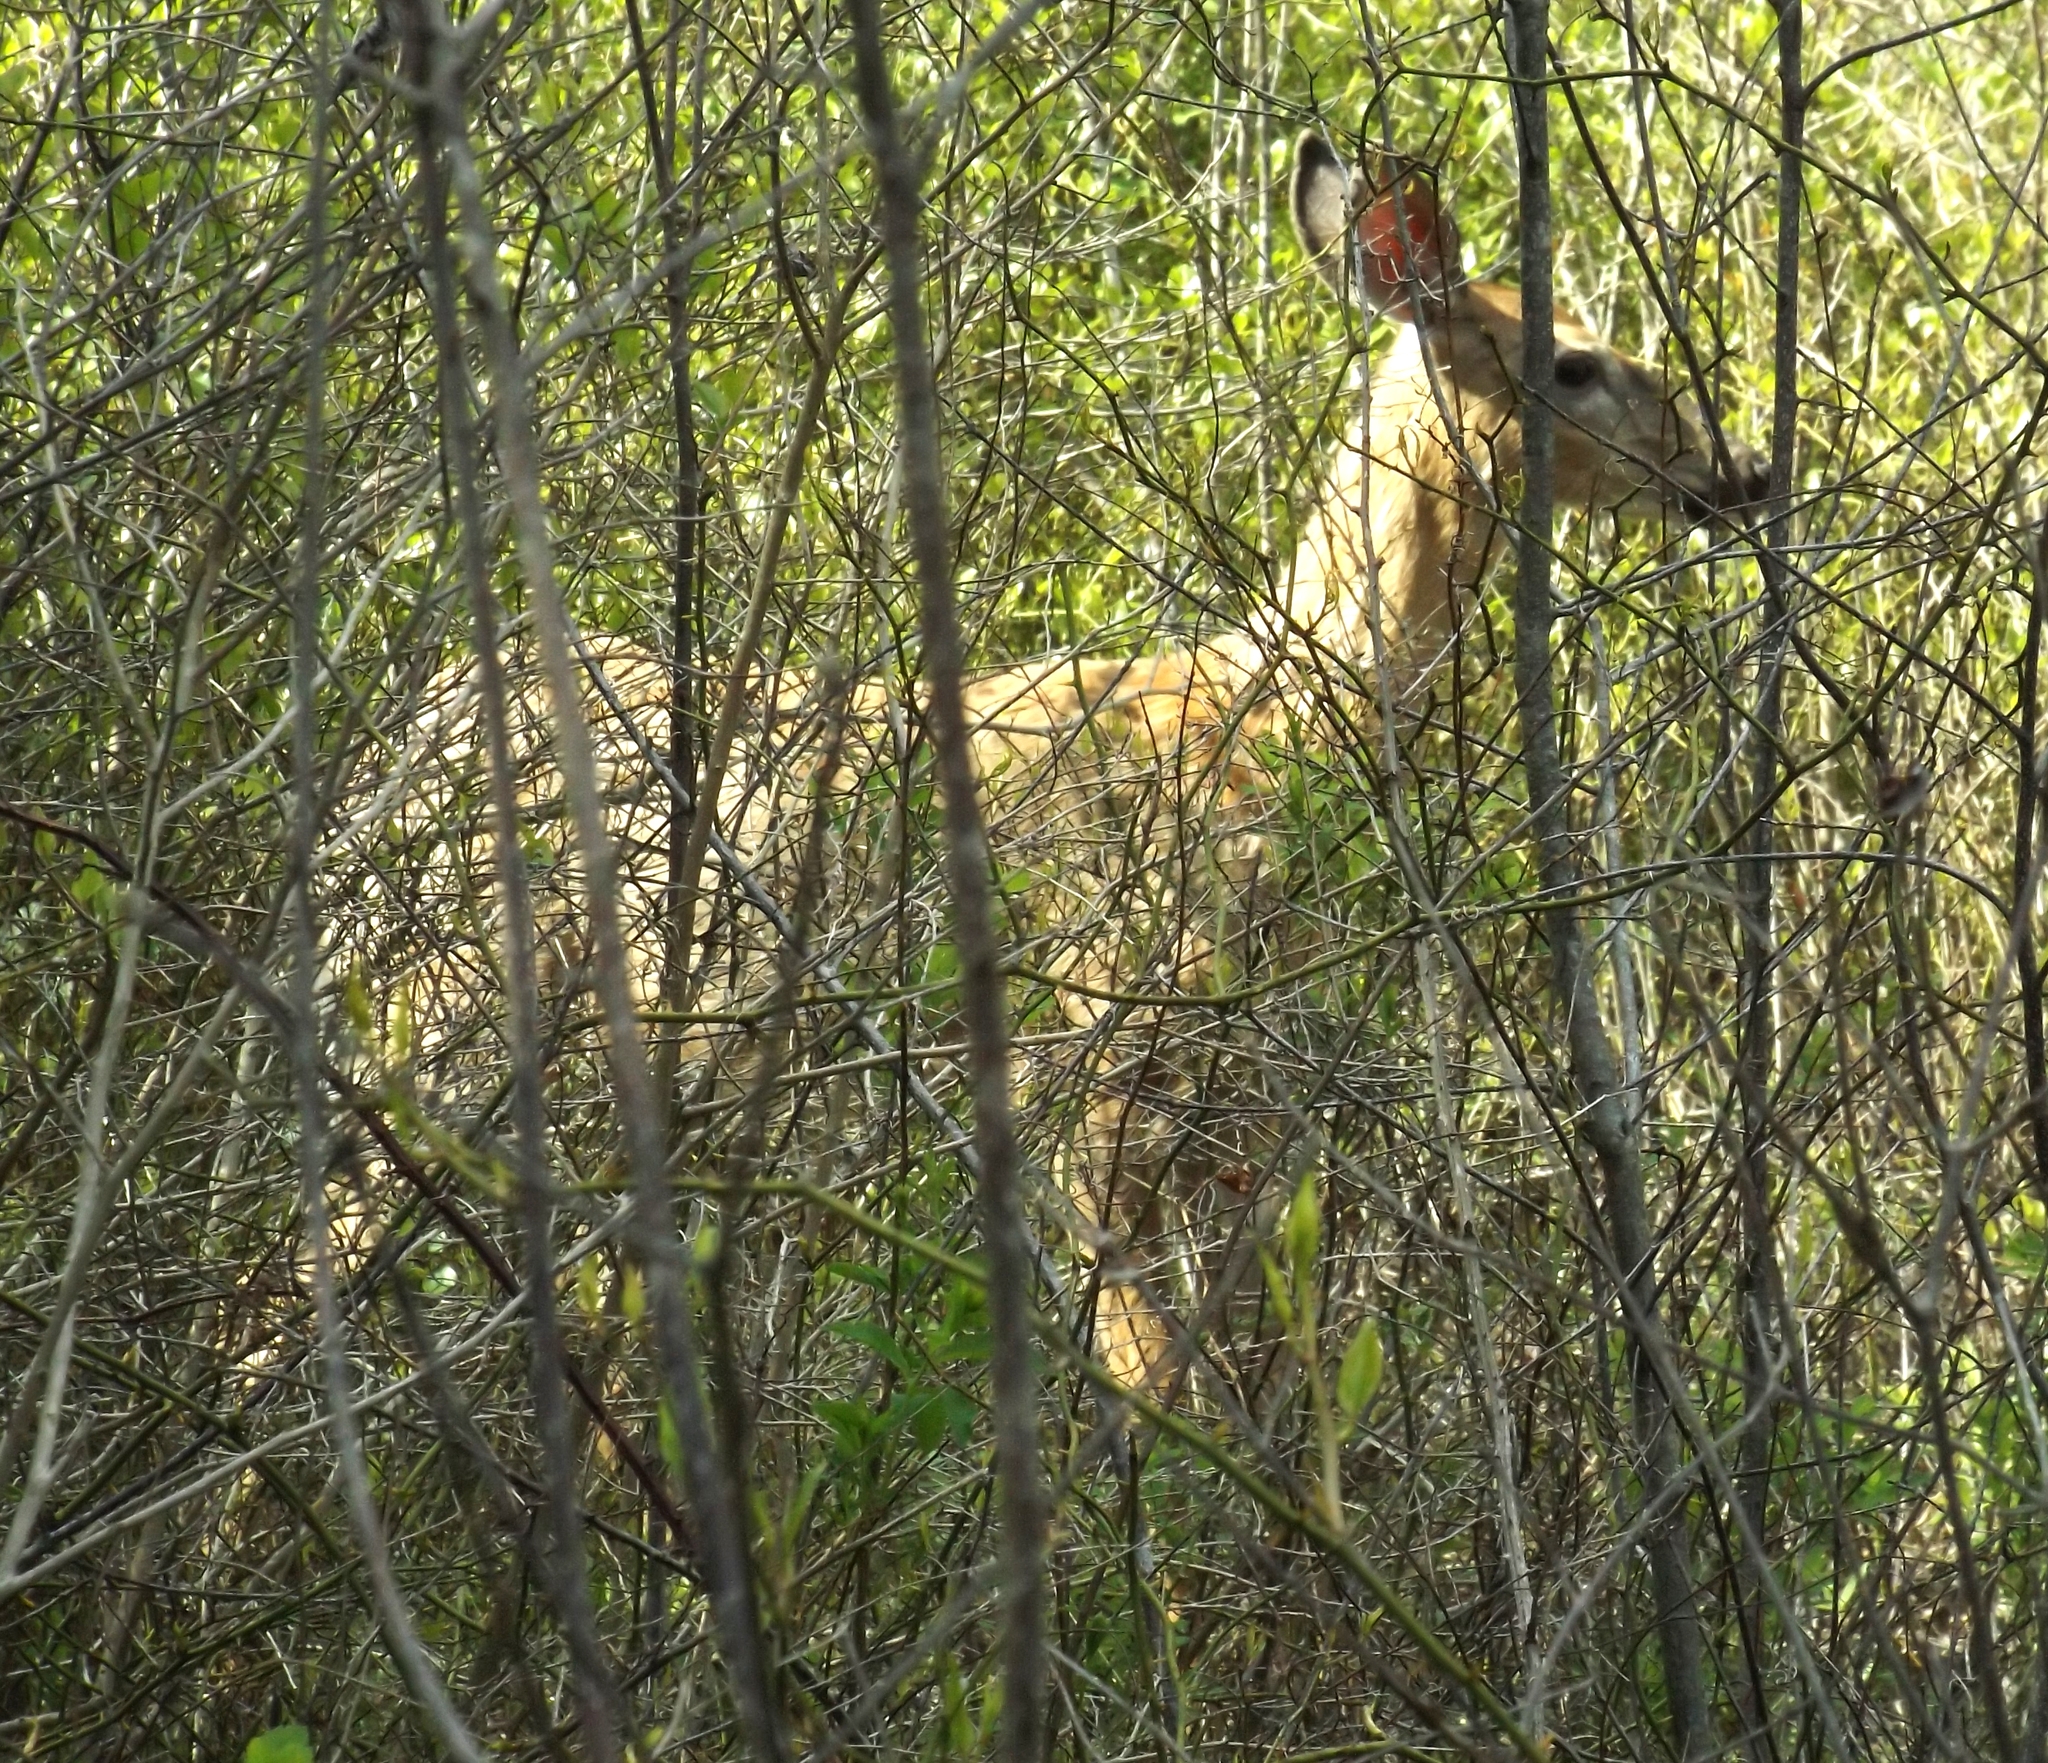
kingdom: Animalia
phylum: Chordata
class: Mammalia
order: Artiodactyla
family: Cervidae
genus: Odocoileus
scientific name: Odocoileus virginianus
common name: White-tailed deer
